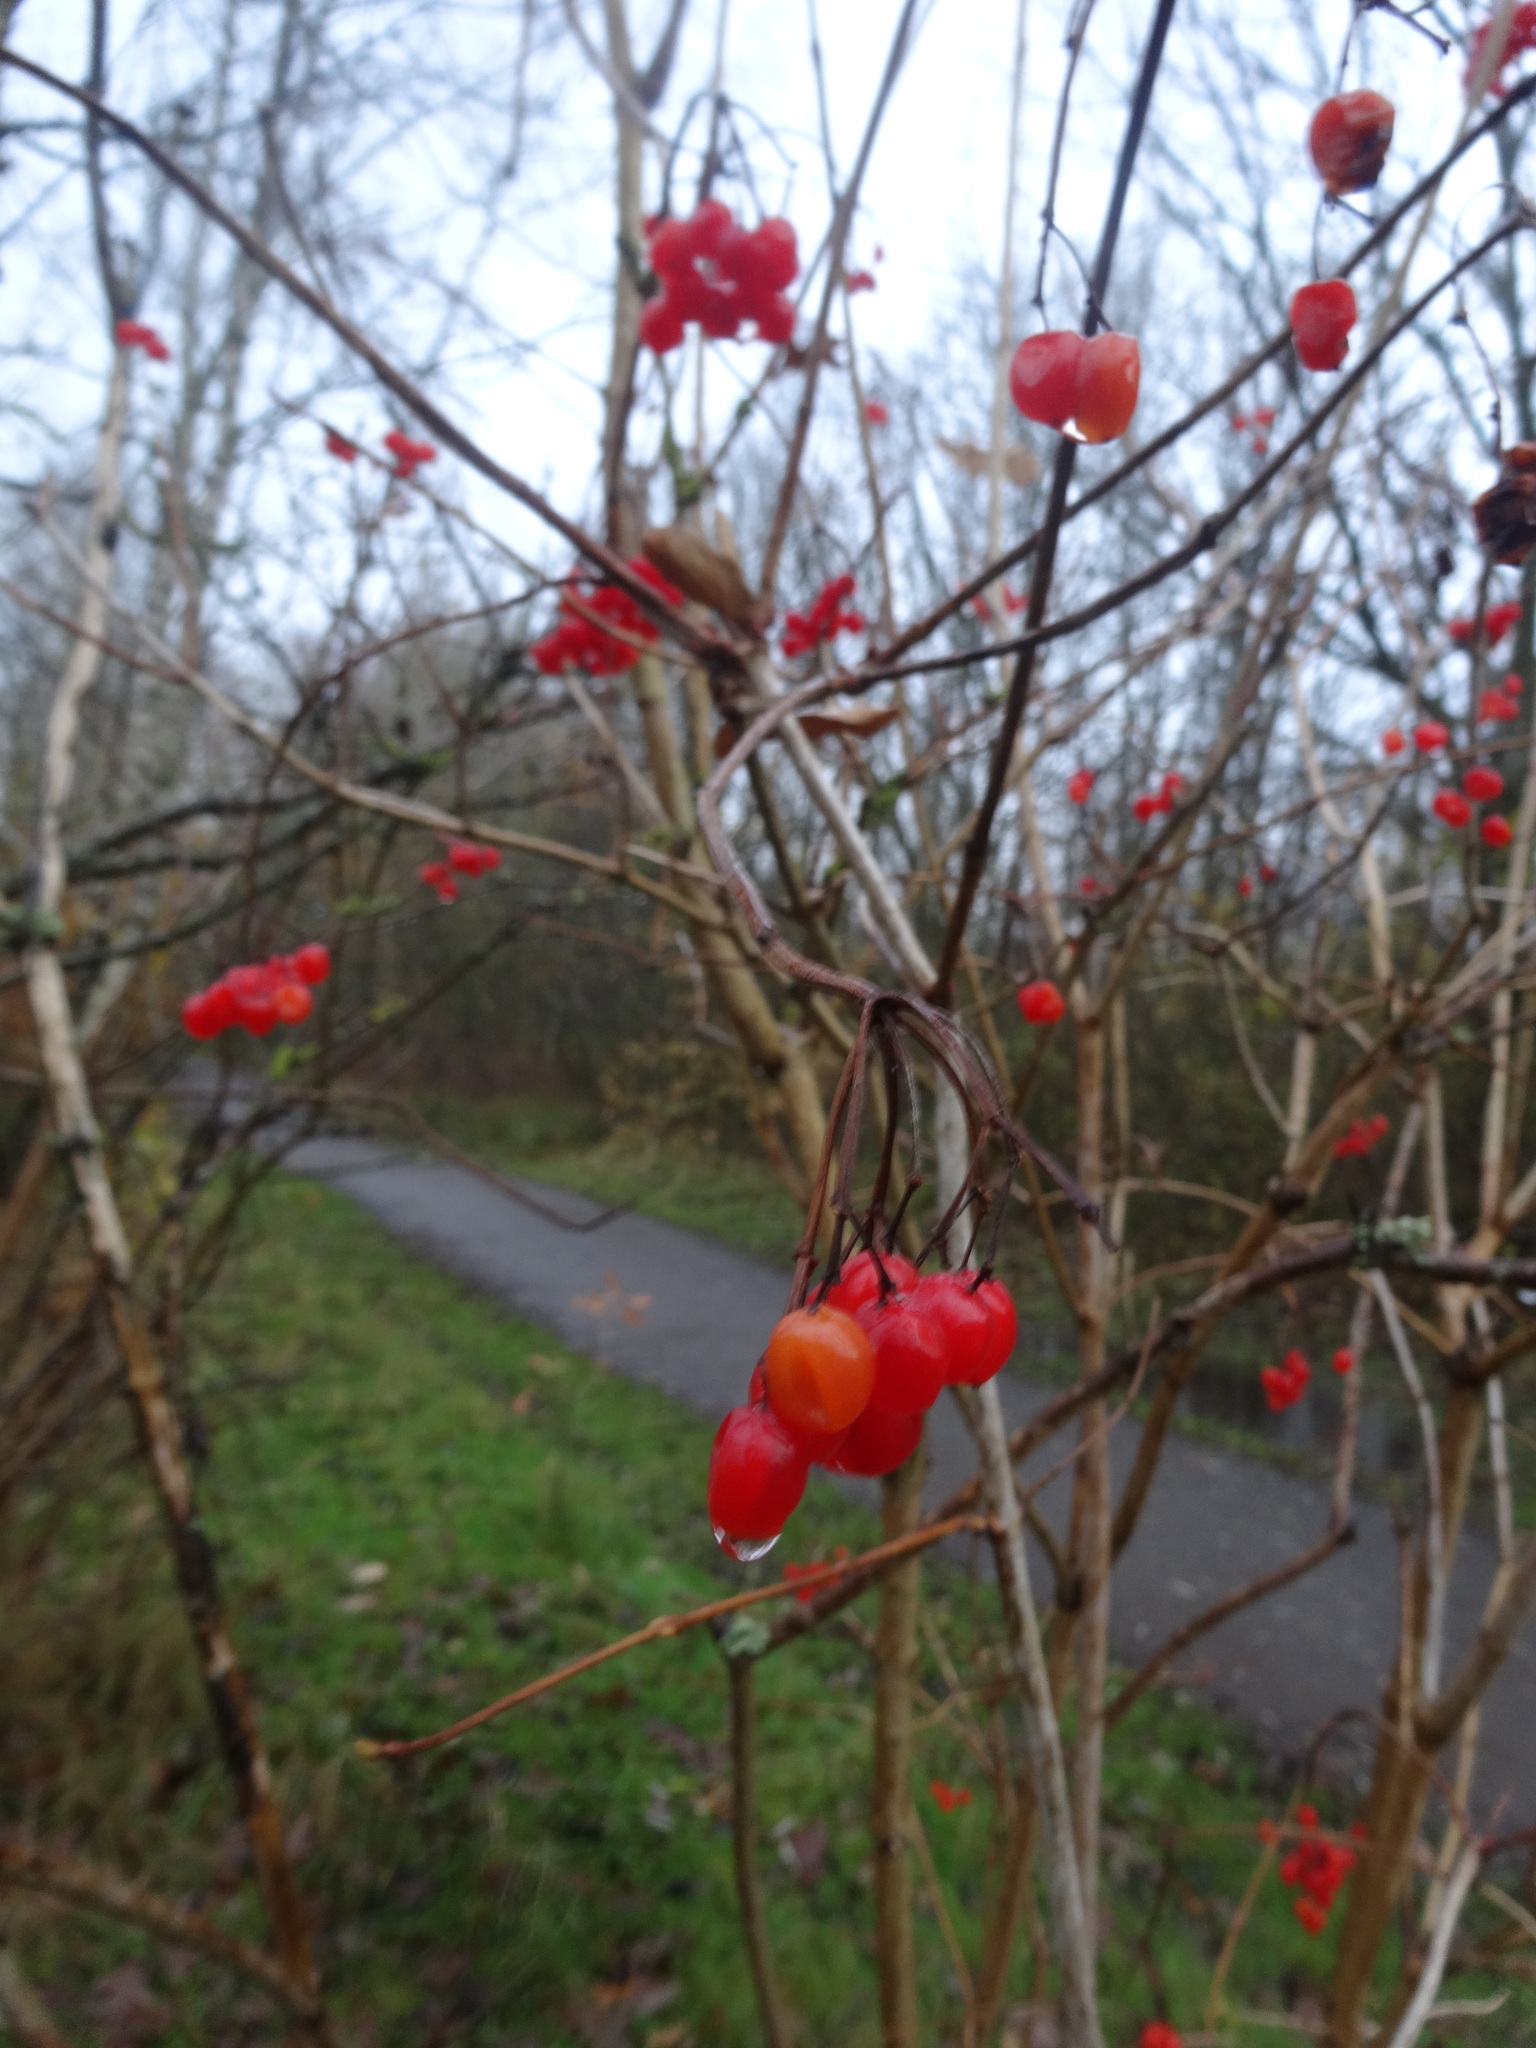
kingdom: Plantae
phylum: Tracheophyta
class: Magnoliopsida
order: Dipsacales
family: Viburnaceae
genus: Viburnum
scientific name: Viburnum opulus
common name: Guelder-rose
